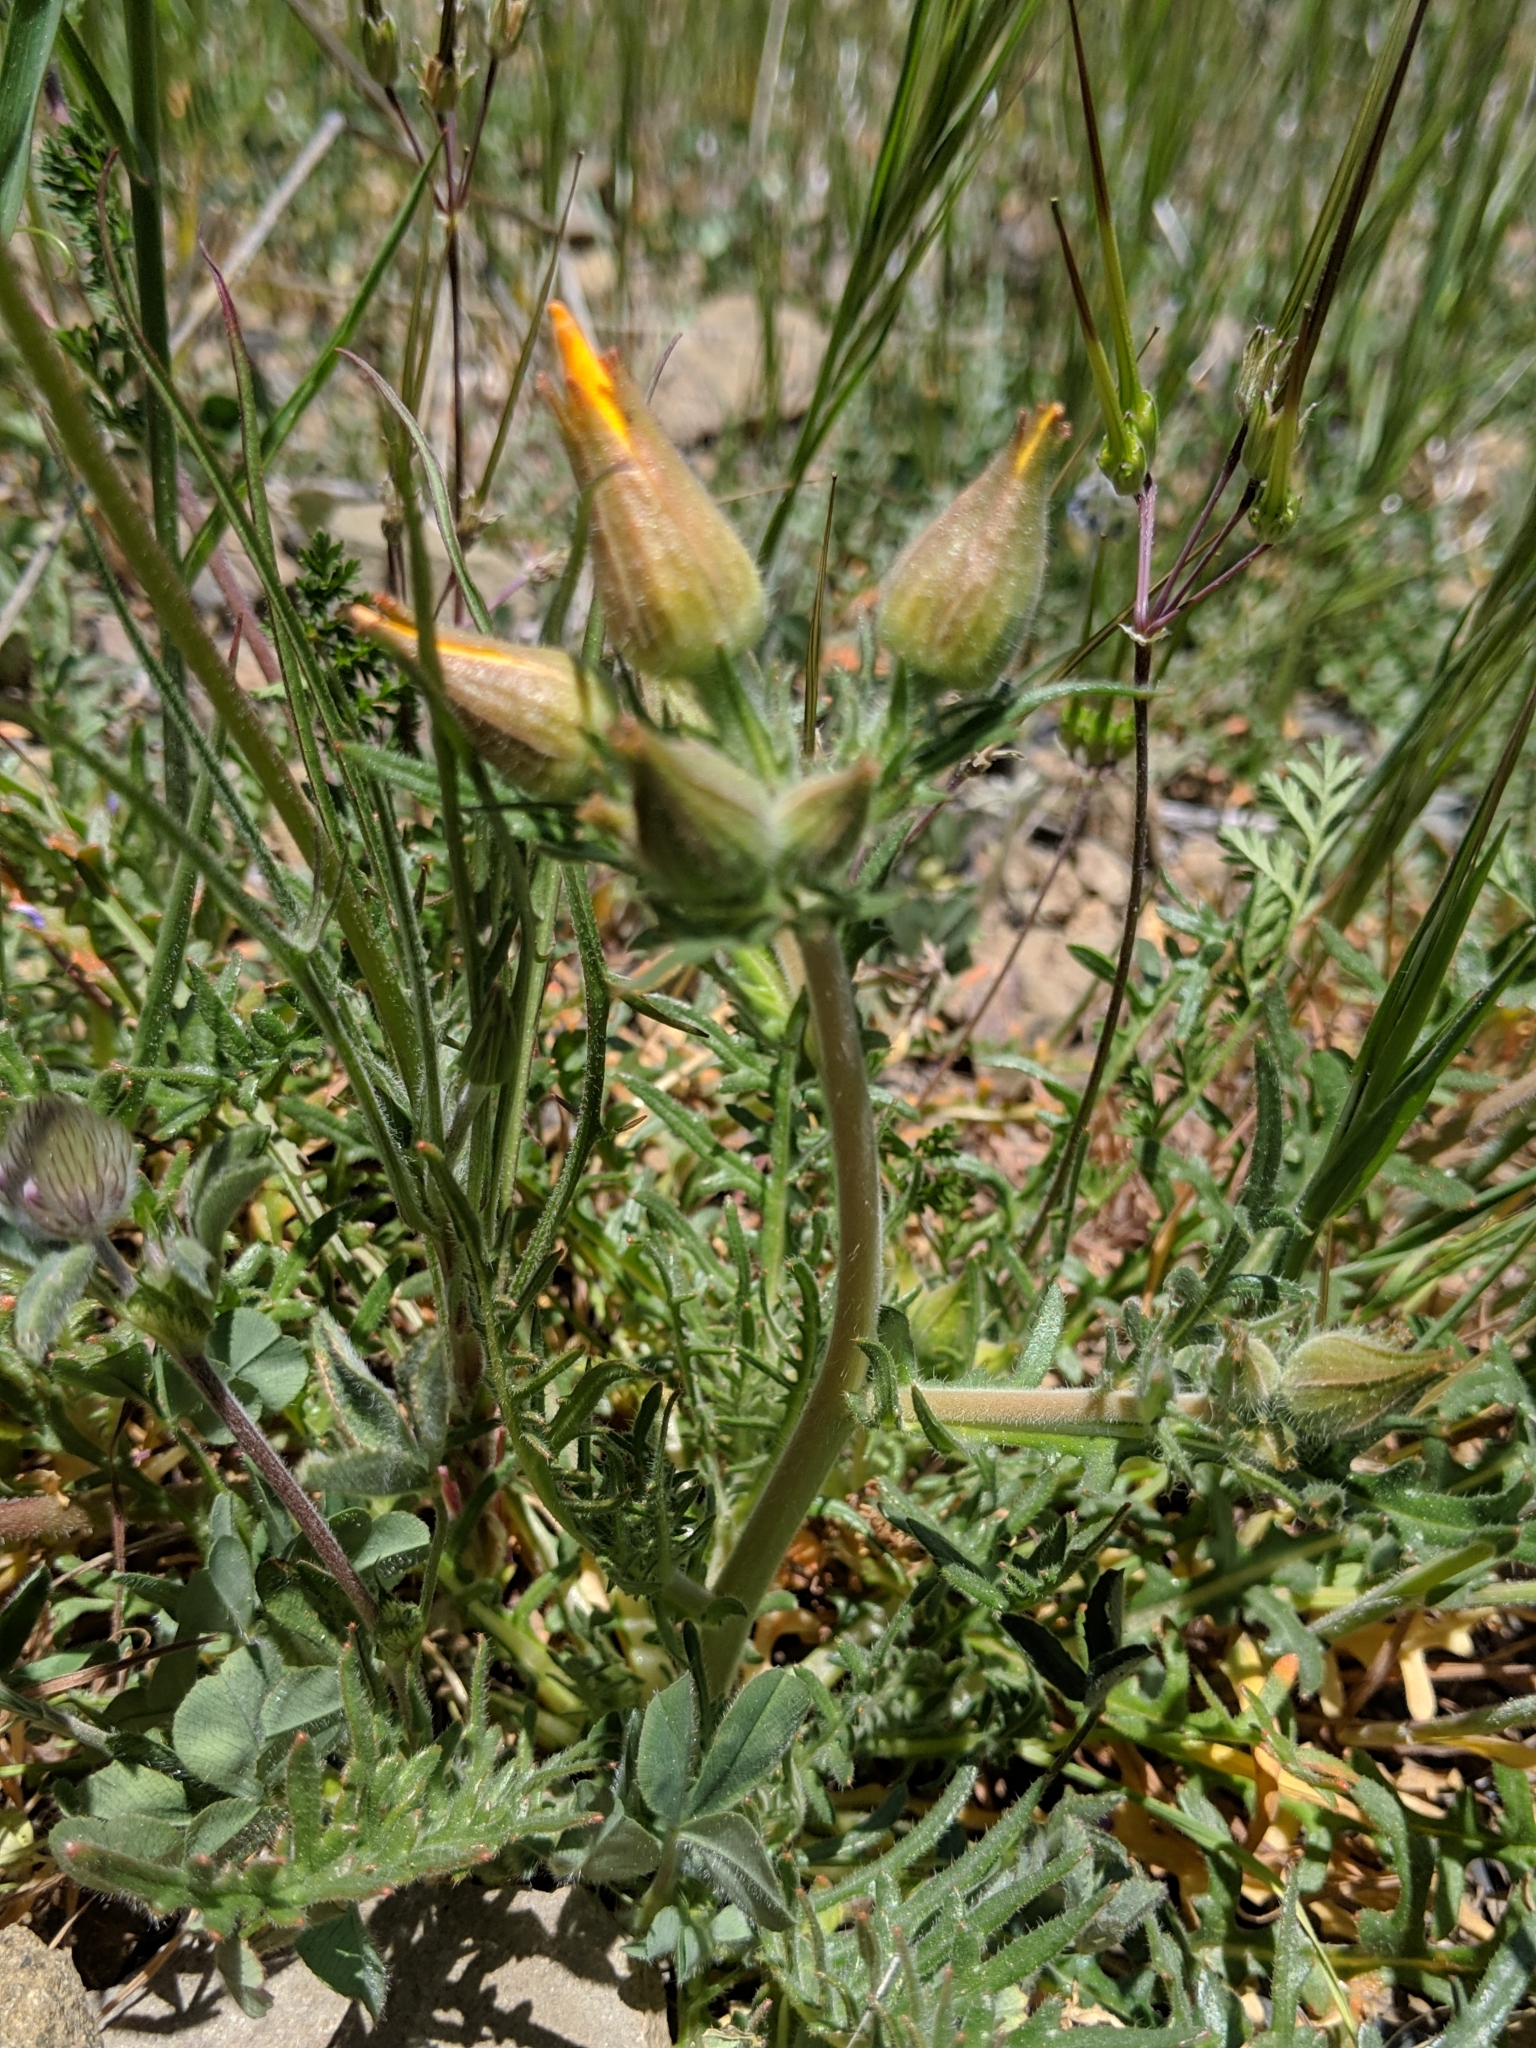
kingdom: Plantae
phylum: Tracheophyta
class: Magnoliopsida
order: Cornales
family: Loasaceae
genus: Mentzelia
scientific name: Mentzelia lindleyi
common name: Golden bartonia
